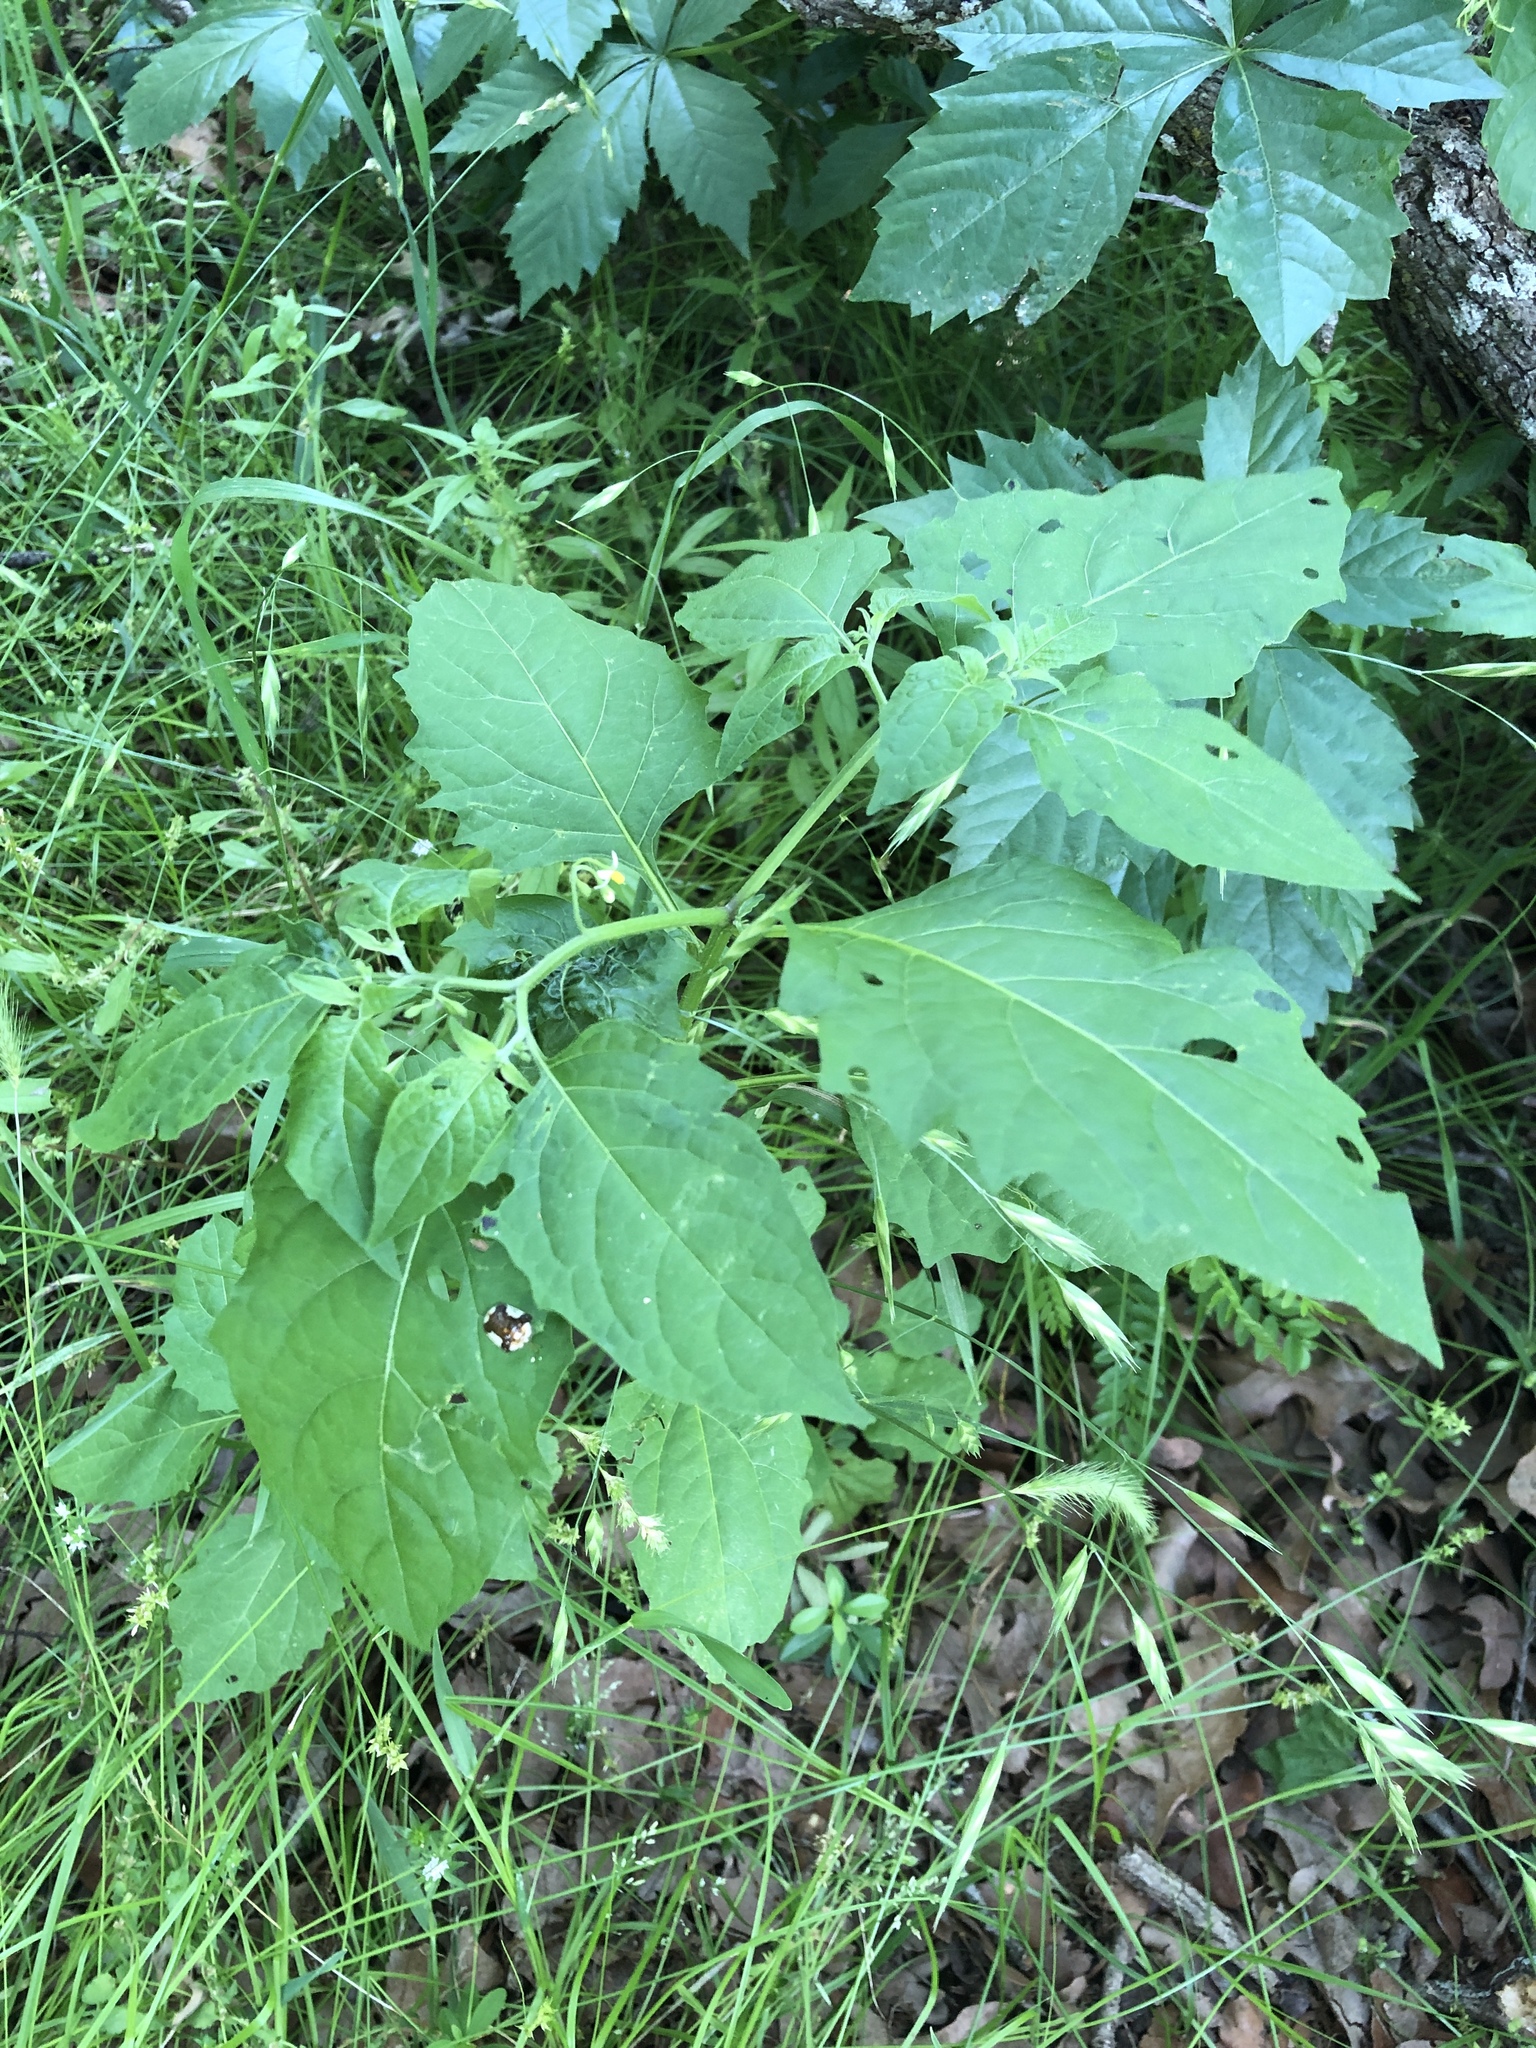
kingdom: Plantae
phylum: Tracheophyta
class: Magnoliopsida
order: Solanales
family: Solanaceae
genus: Solanum
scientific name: Solanum emulans
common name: Eastern black nightshade
